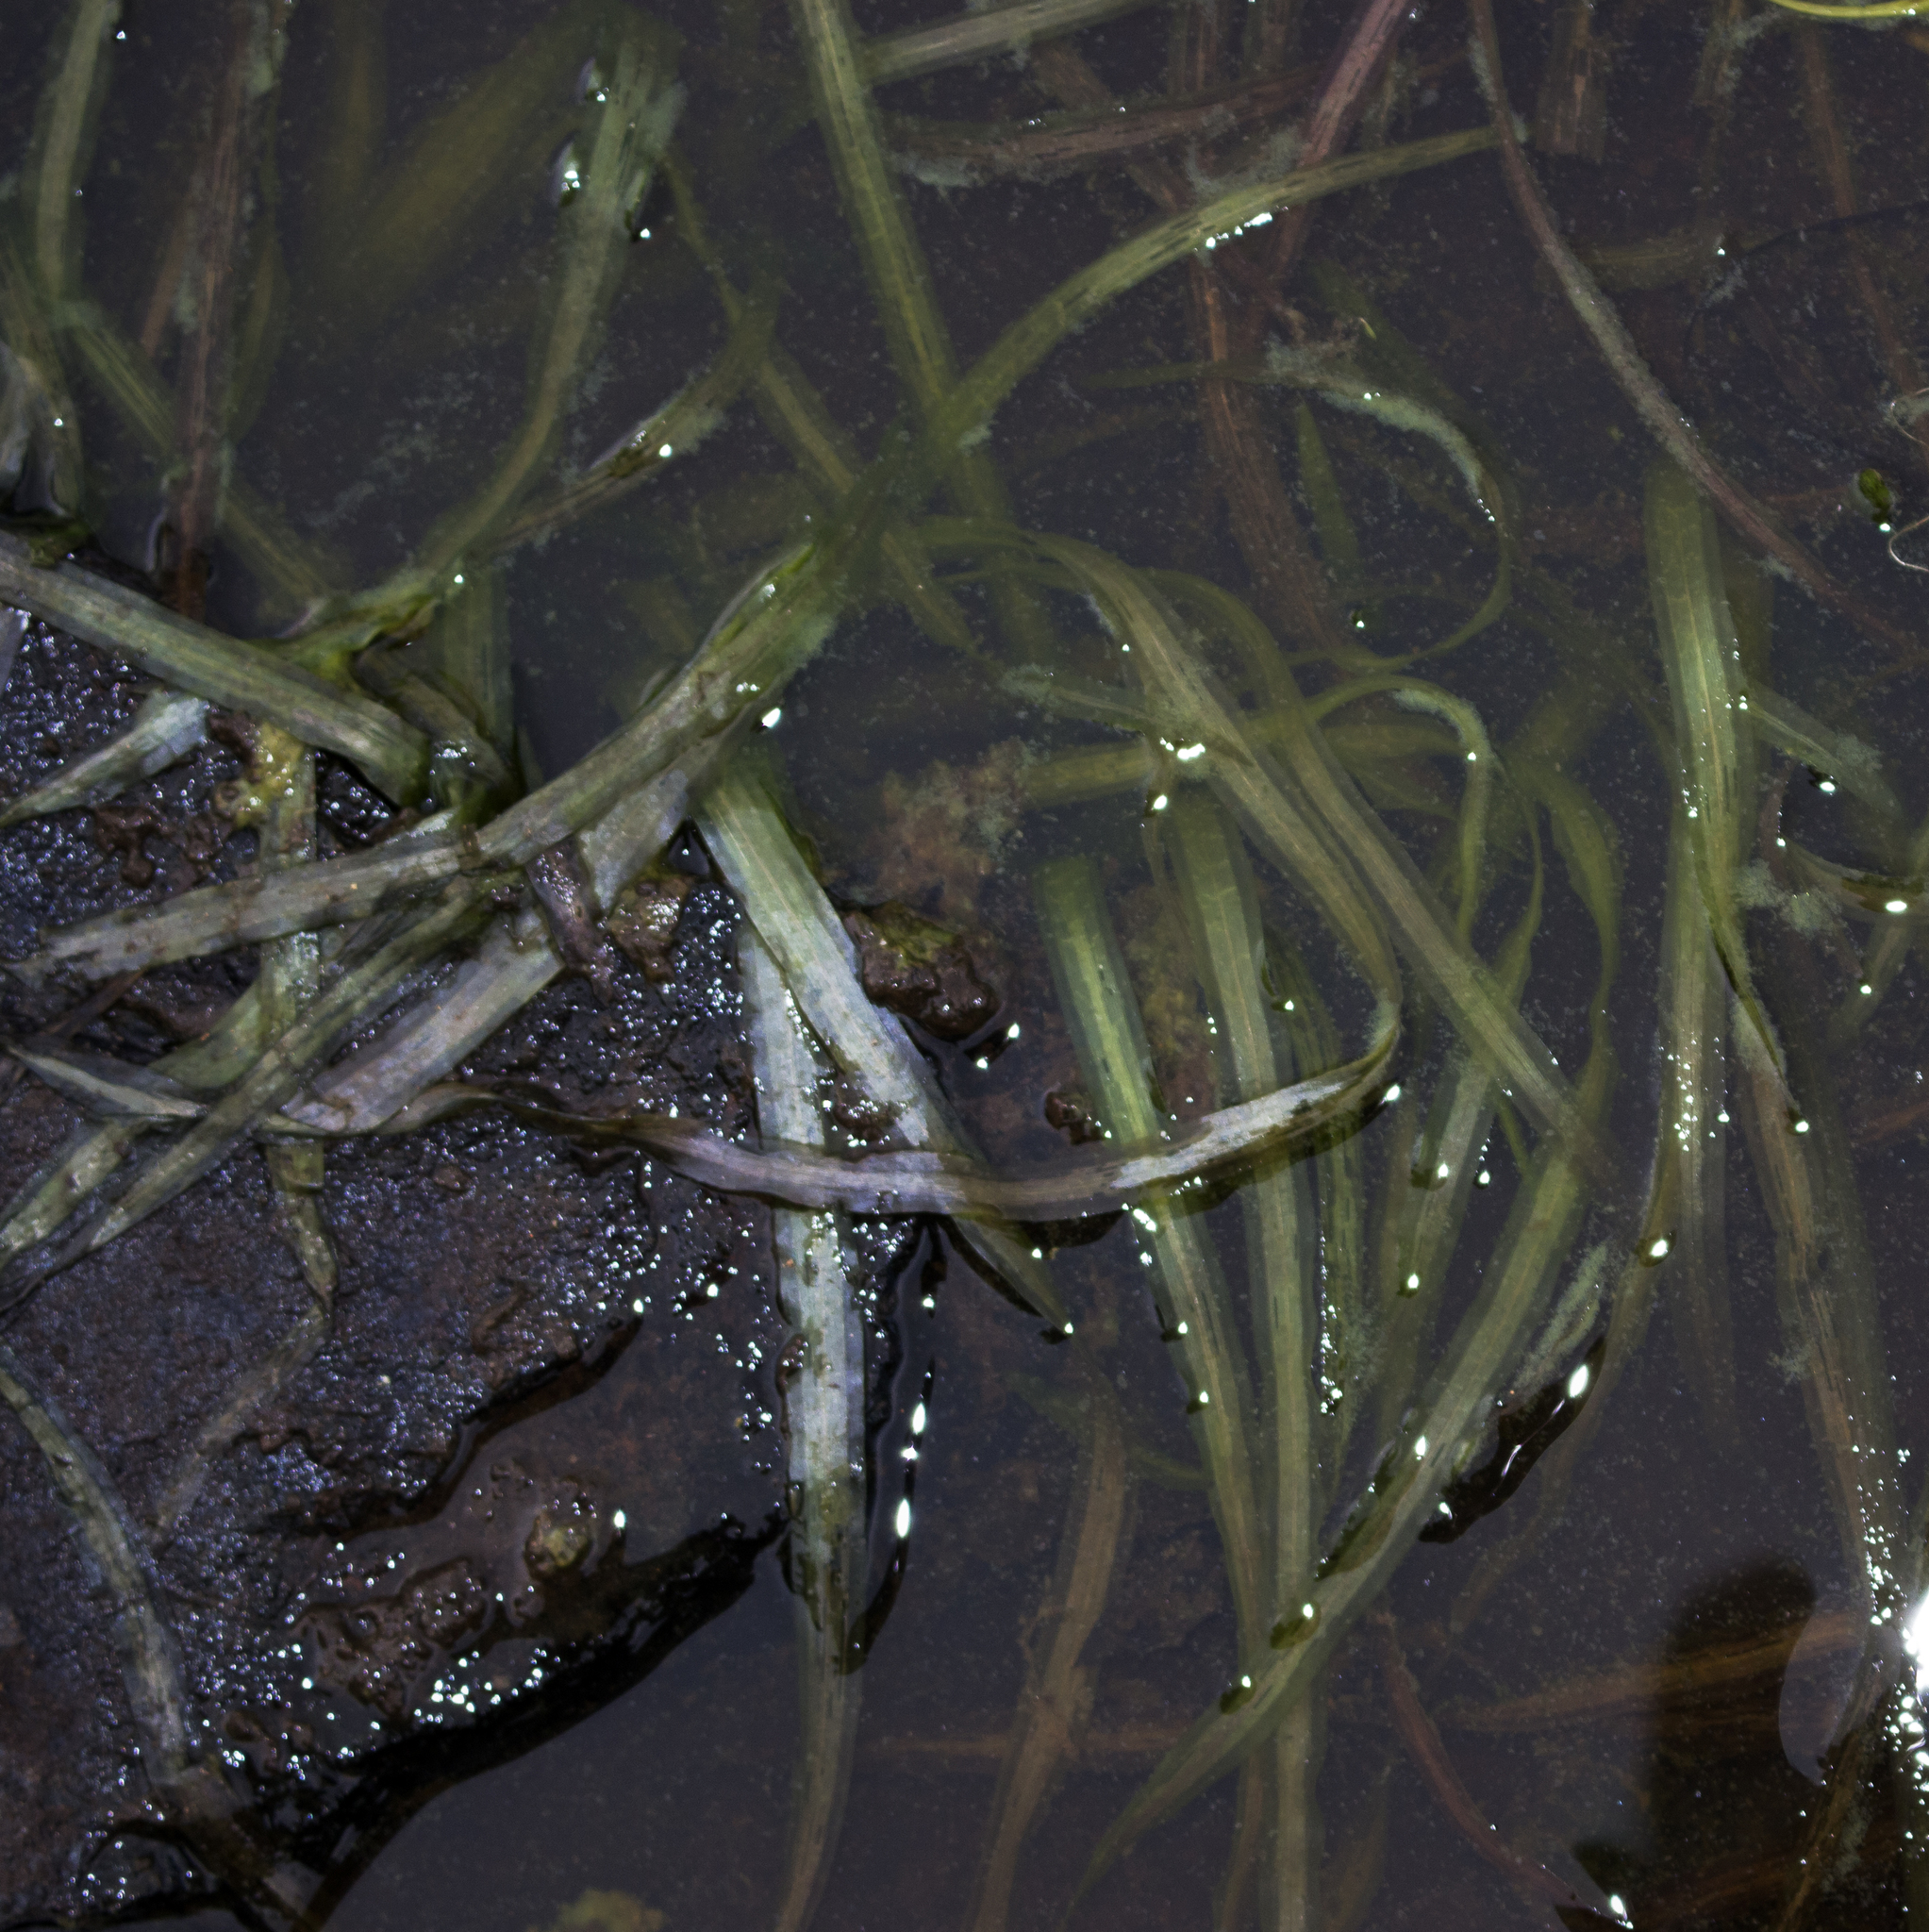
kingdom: Plantae
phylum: Tracheophyta
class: Liliopsida
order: Alismatales
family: Hydrocharitaceae
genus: Vallisneria
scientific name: Vallisneria americana
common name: American eelgrass
